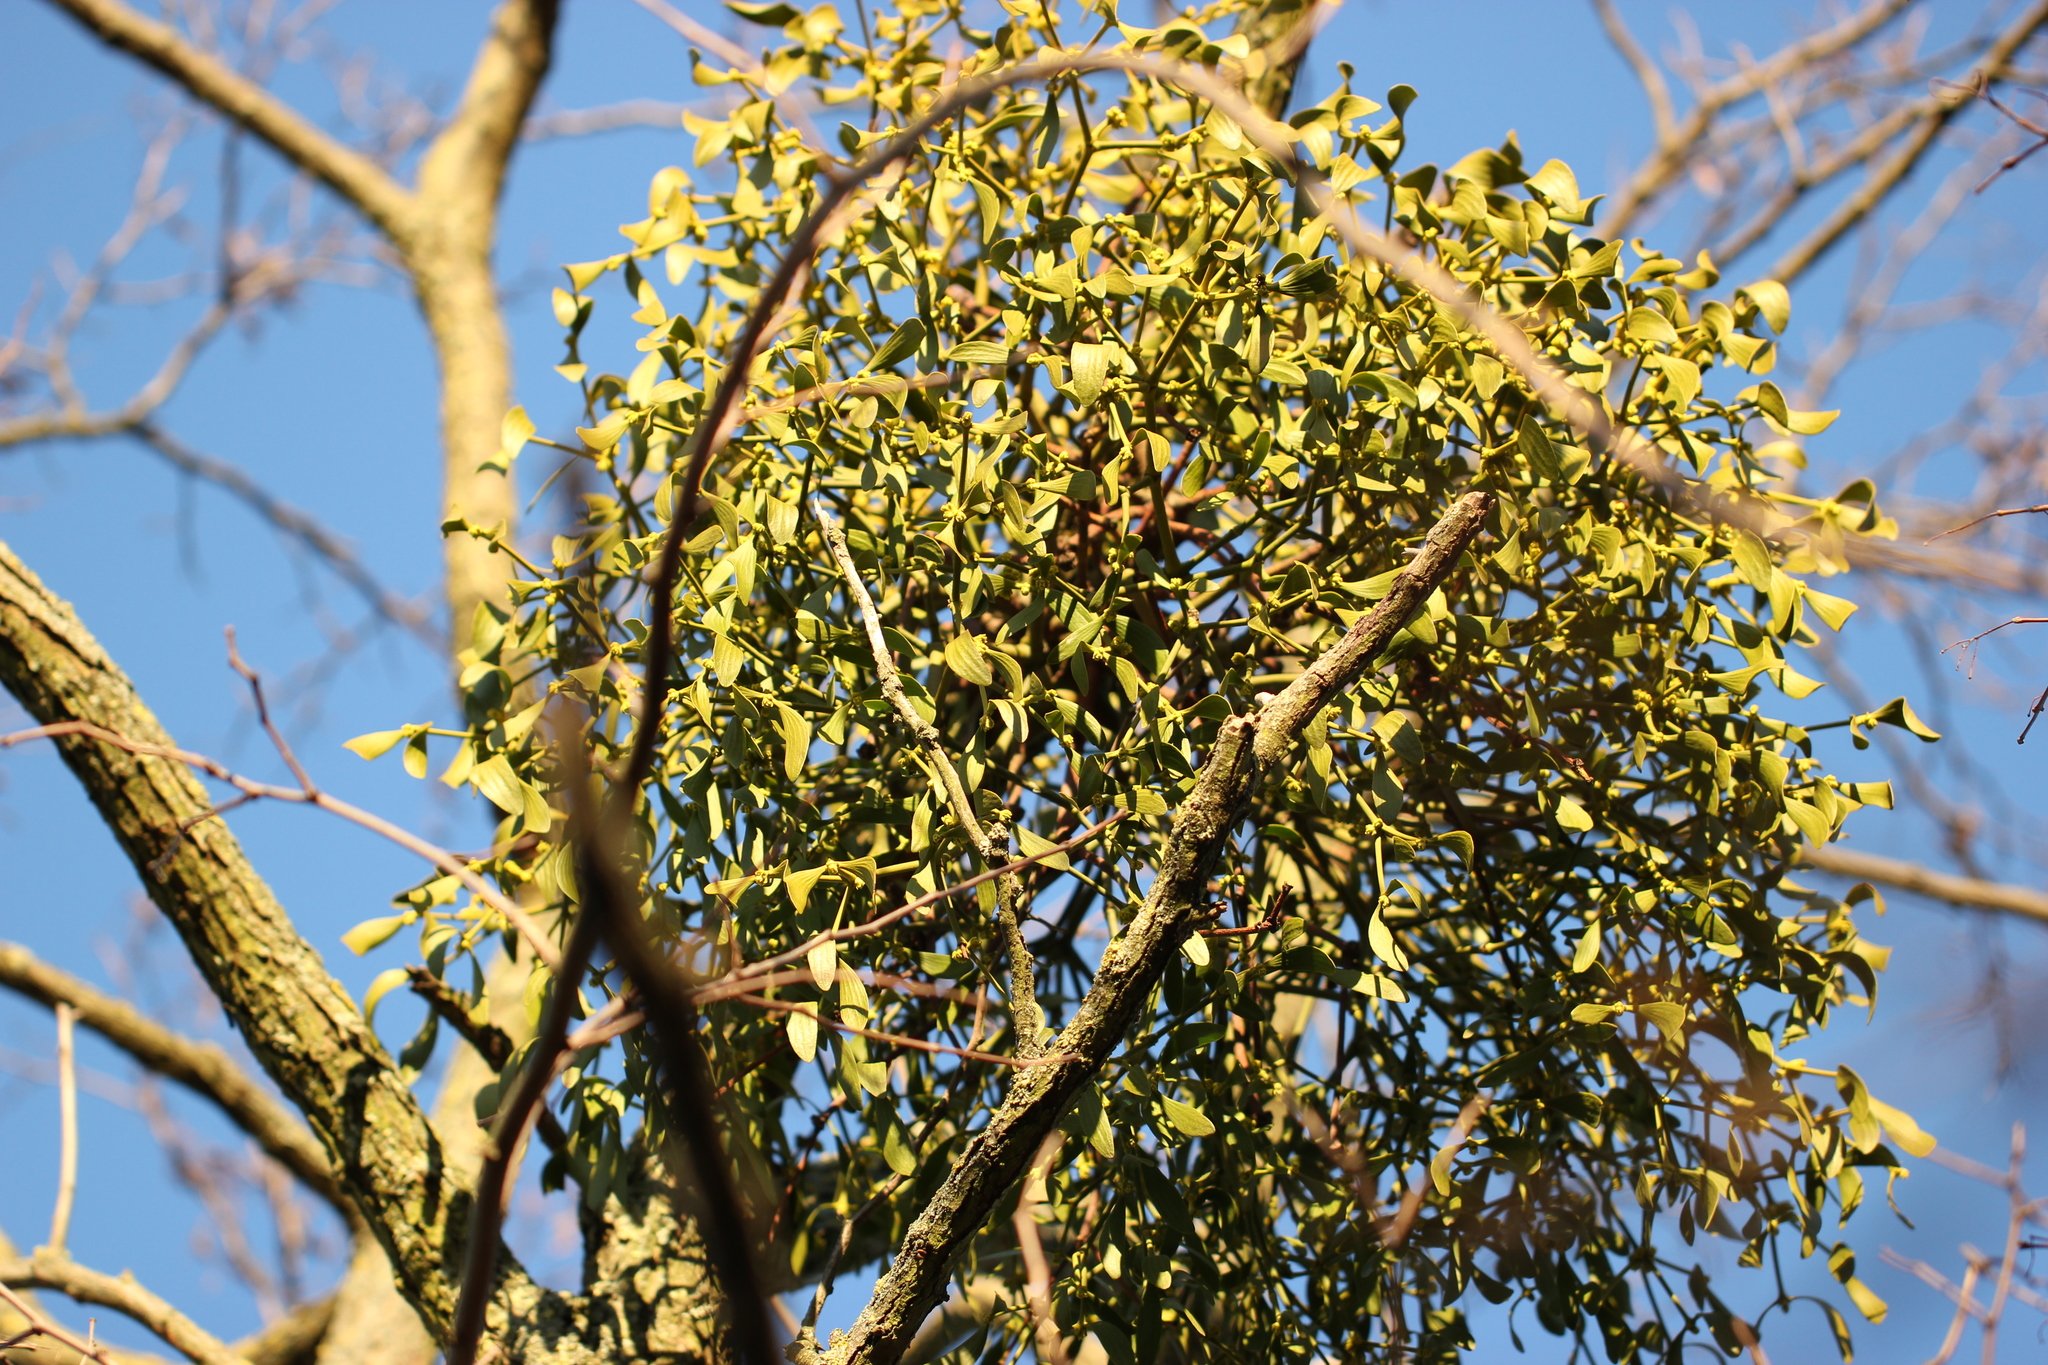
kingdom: Plantae
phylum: Tracheophyta
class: Magnoliopsida
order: Santalales
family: Viscaceae
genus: Viscum
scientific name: Viscum album
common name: Mistletoe
